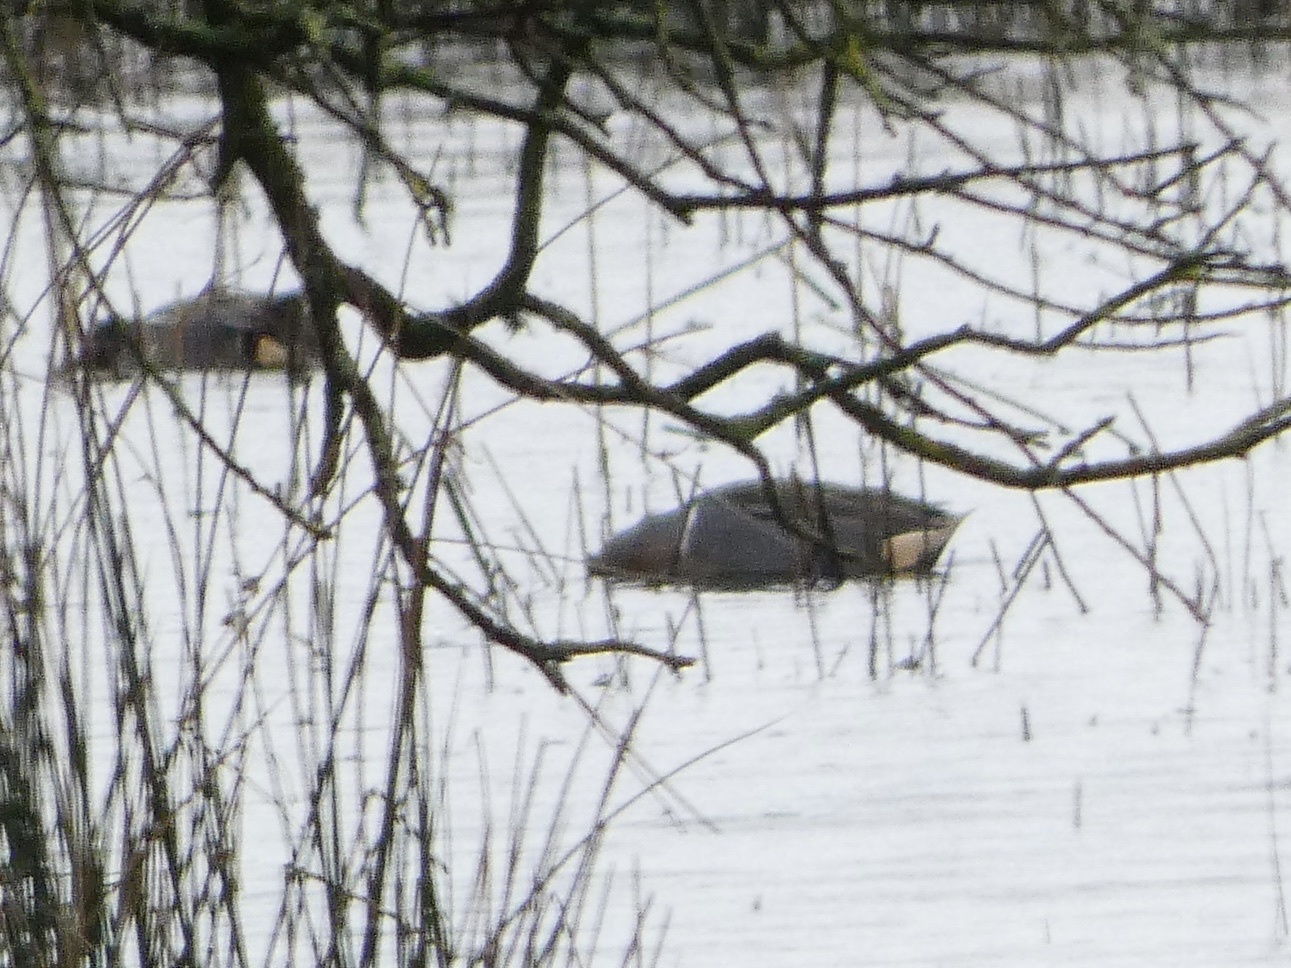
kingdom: Animalia
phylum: Chordata
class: Aves
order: Anseriformes
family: Anatidae
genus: Anas
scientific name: Anas carolinensis
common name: Green-winged teal
